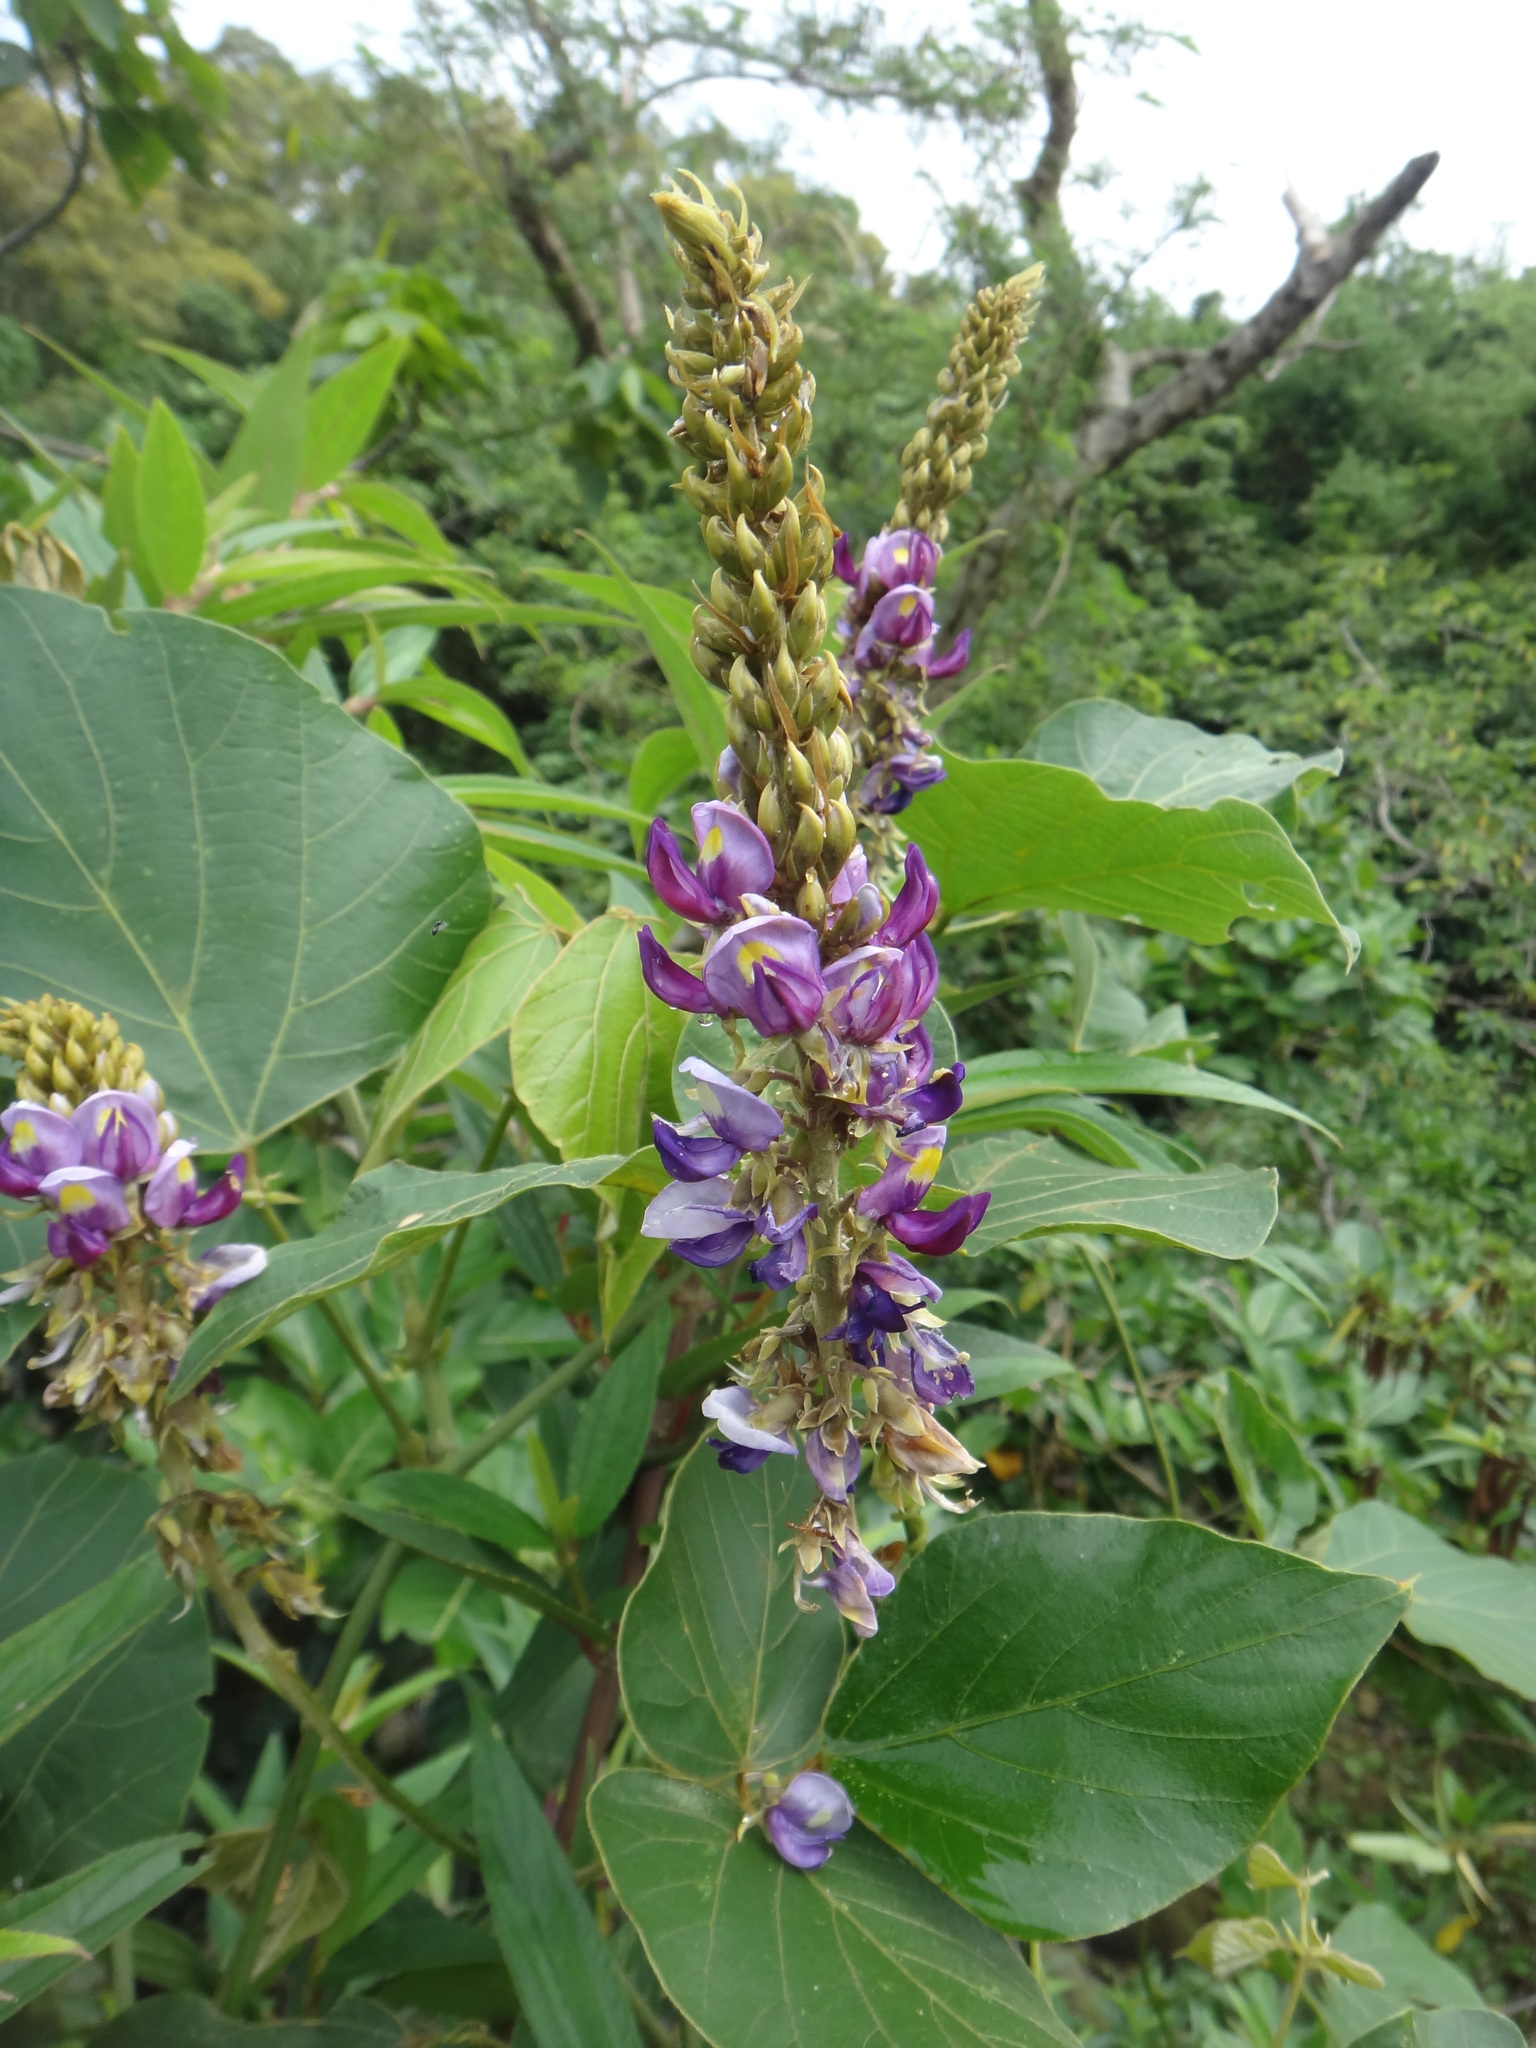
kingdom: Plantae
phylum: Tracheophyta
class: Magnoliopsida
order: Fabales
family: Fabaceae
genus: Pueraria
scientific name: Pueraria montana
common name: Kudzu
